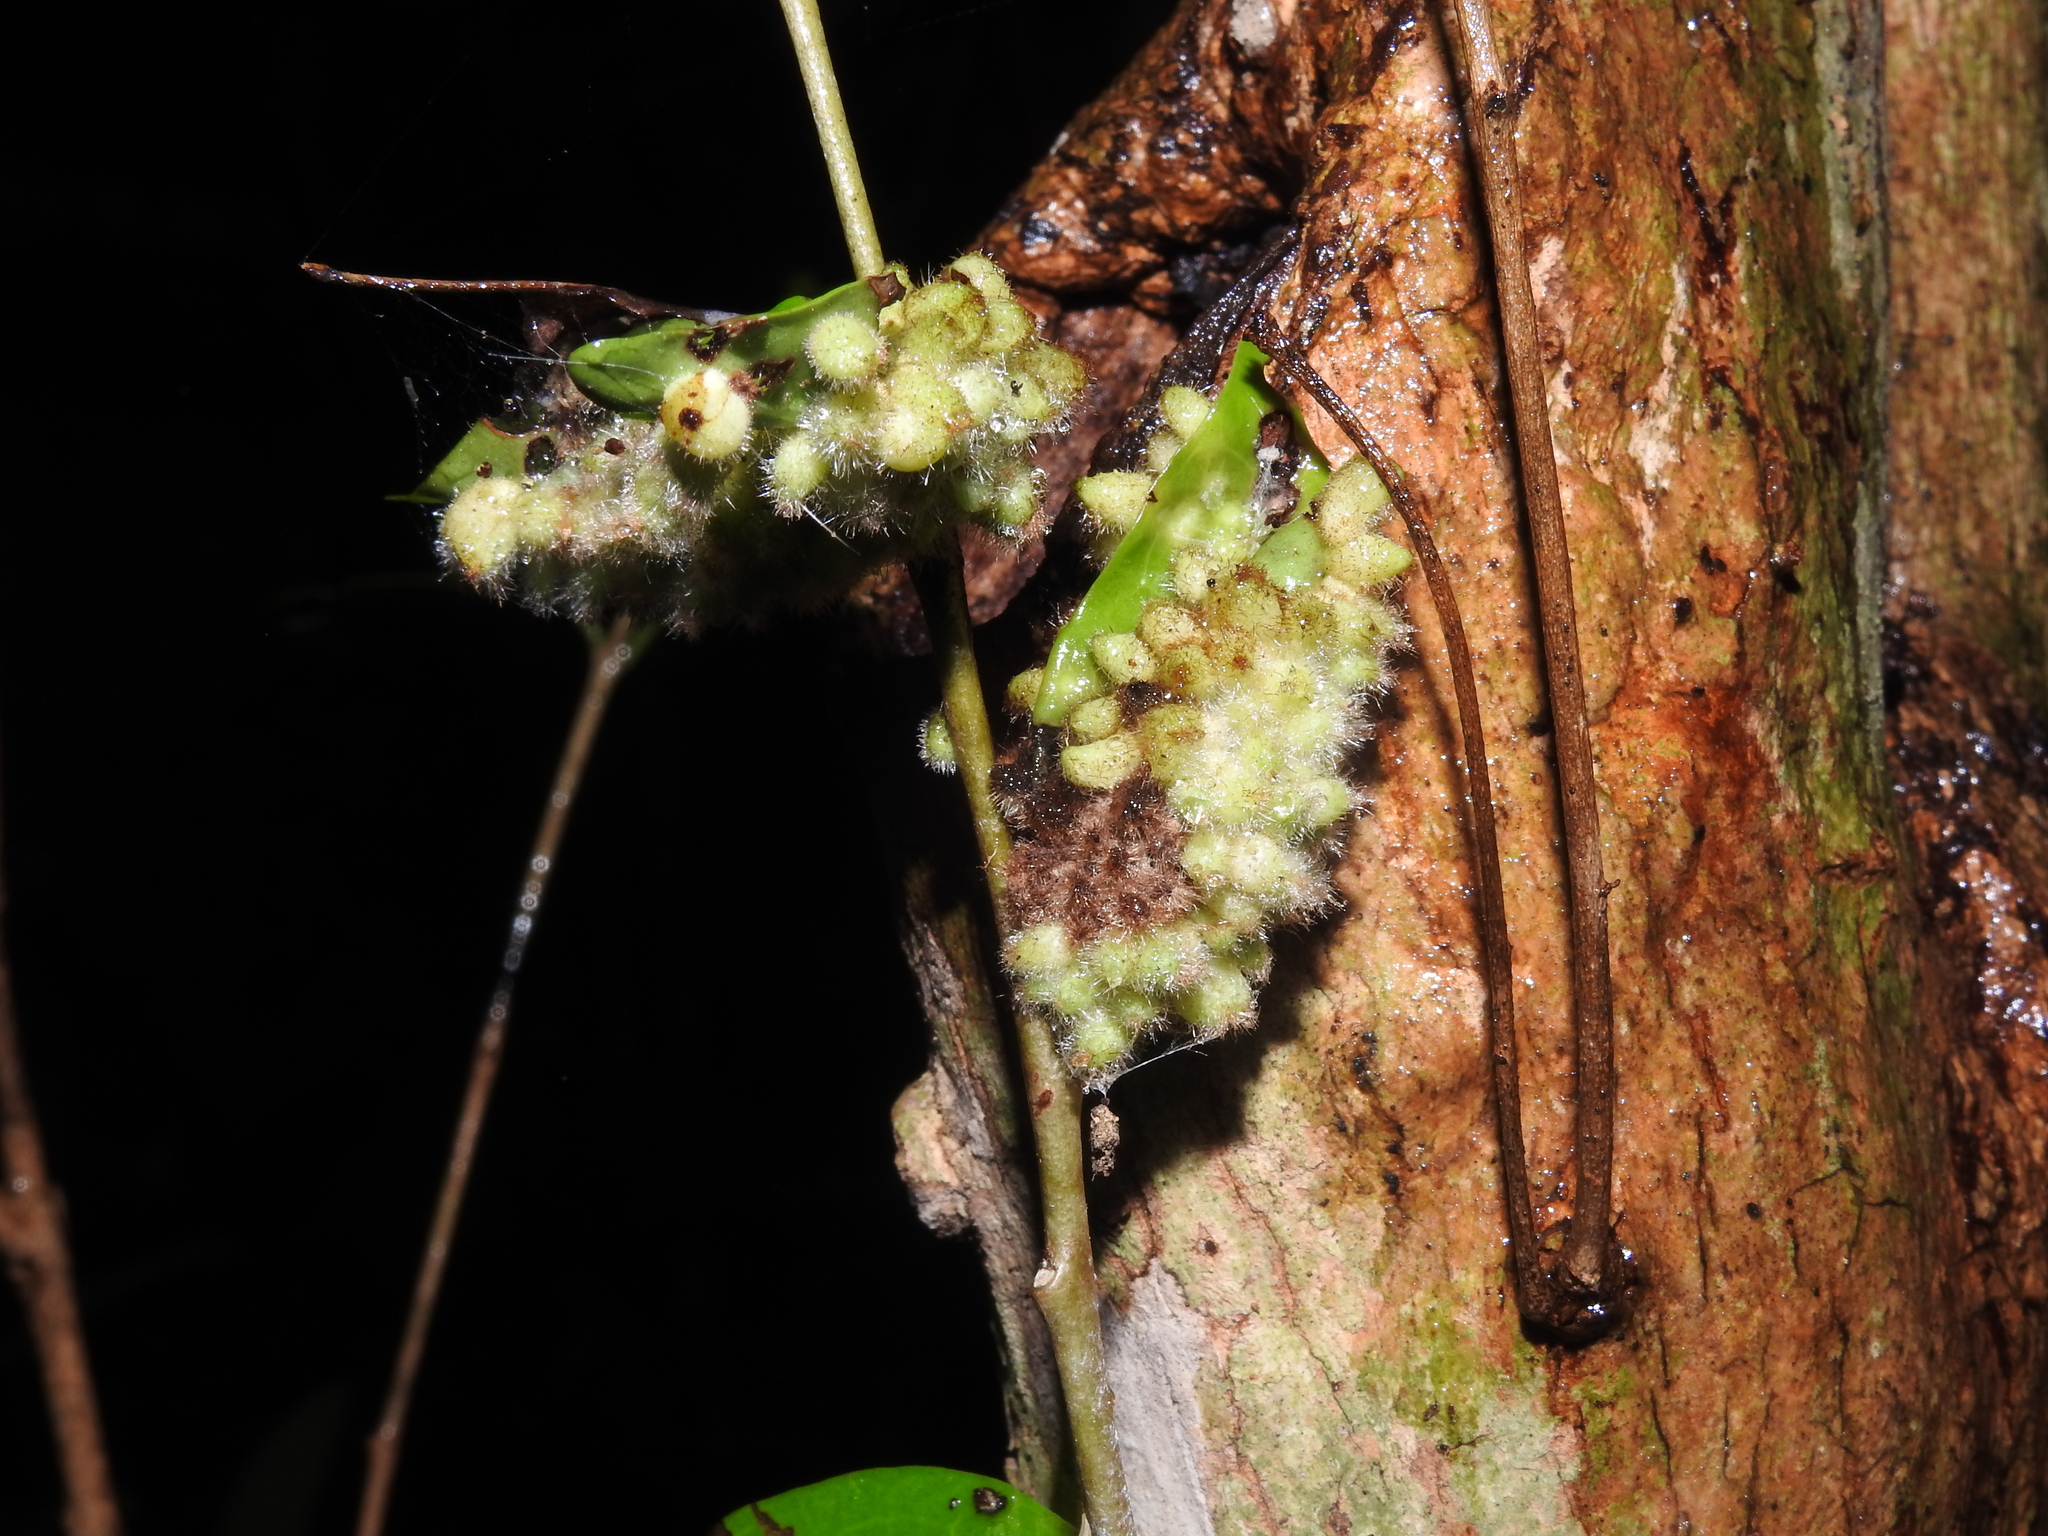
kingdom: Animalia
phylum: Arthropoda
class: Insecta
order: Diptera
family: Cecidomyiidae
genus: Stephomyia
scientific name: Stephomyia eugeniae
